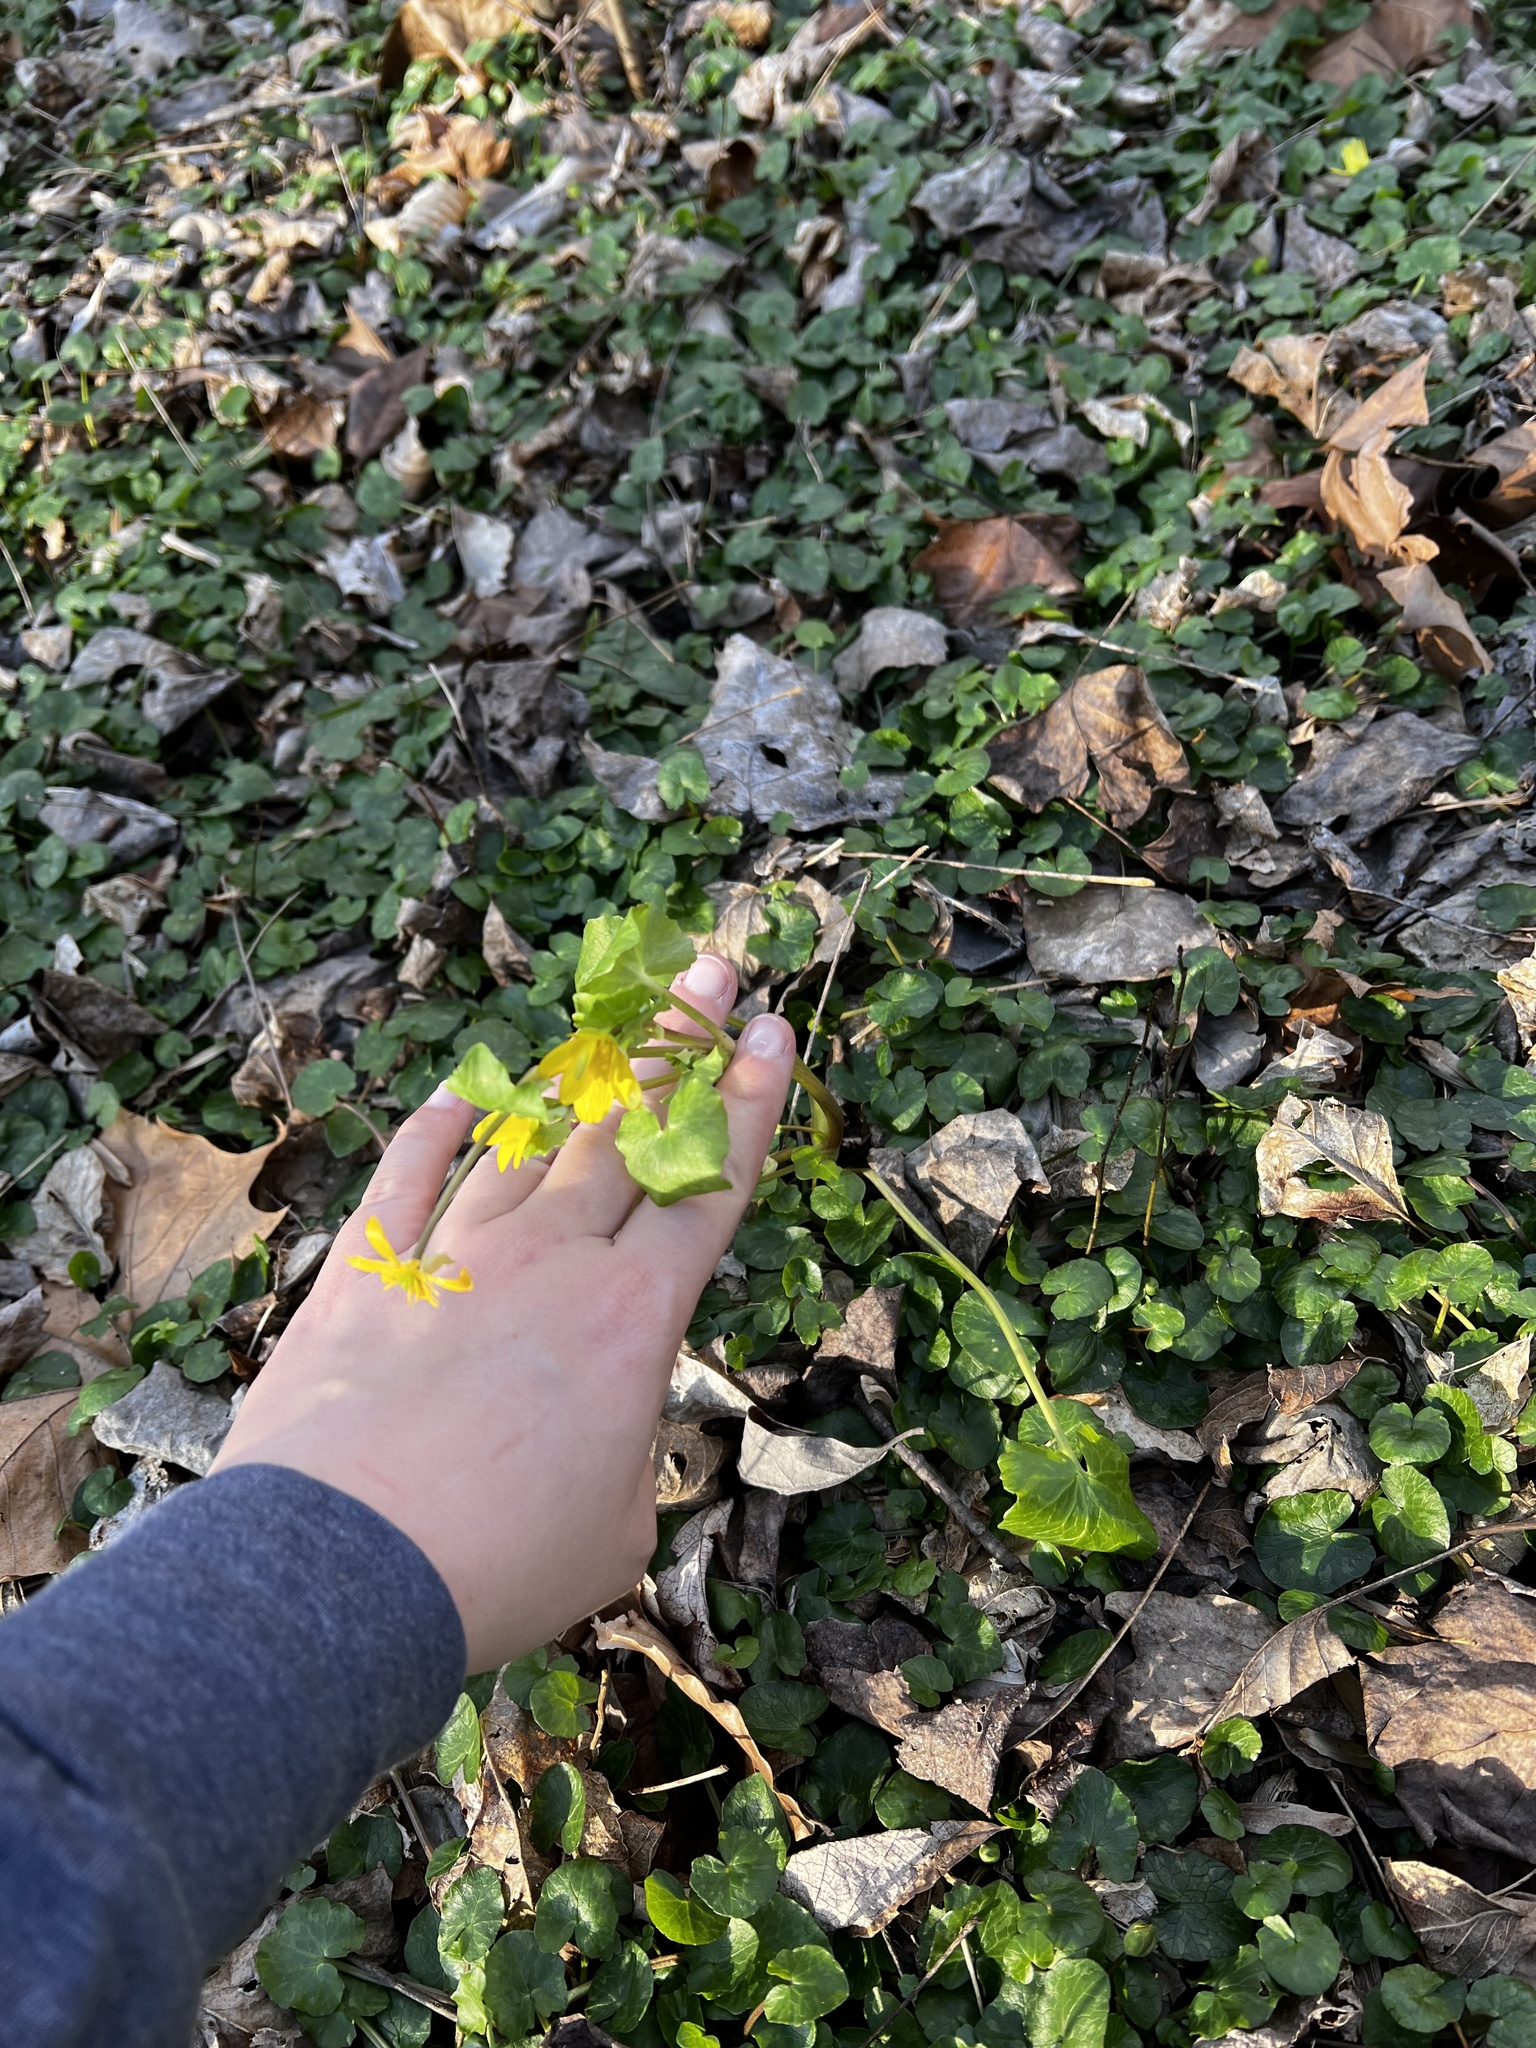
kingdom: Plantae
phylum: Tracheophyta
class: Magnoliopsida
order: Ranunculales
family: Ranunculaceae
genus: Ficaria
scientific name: Ficaria verna
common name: Lesser celandine
